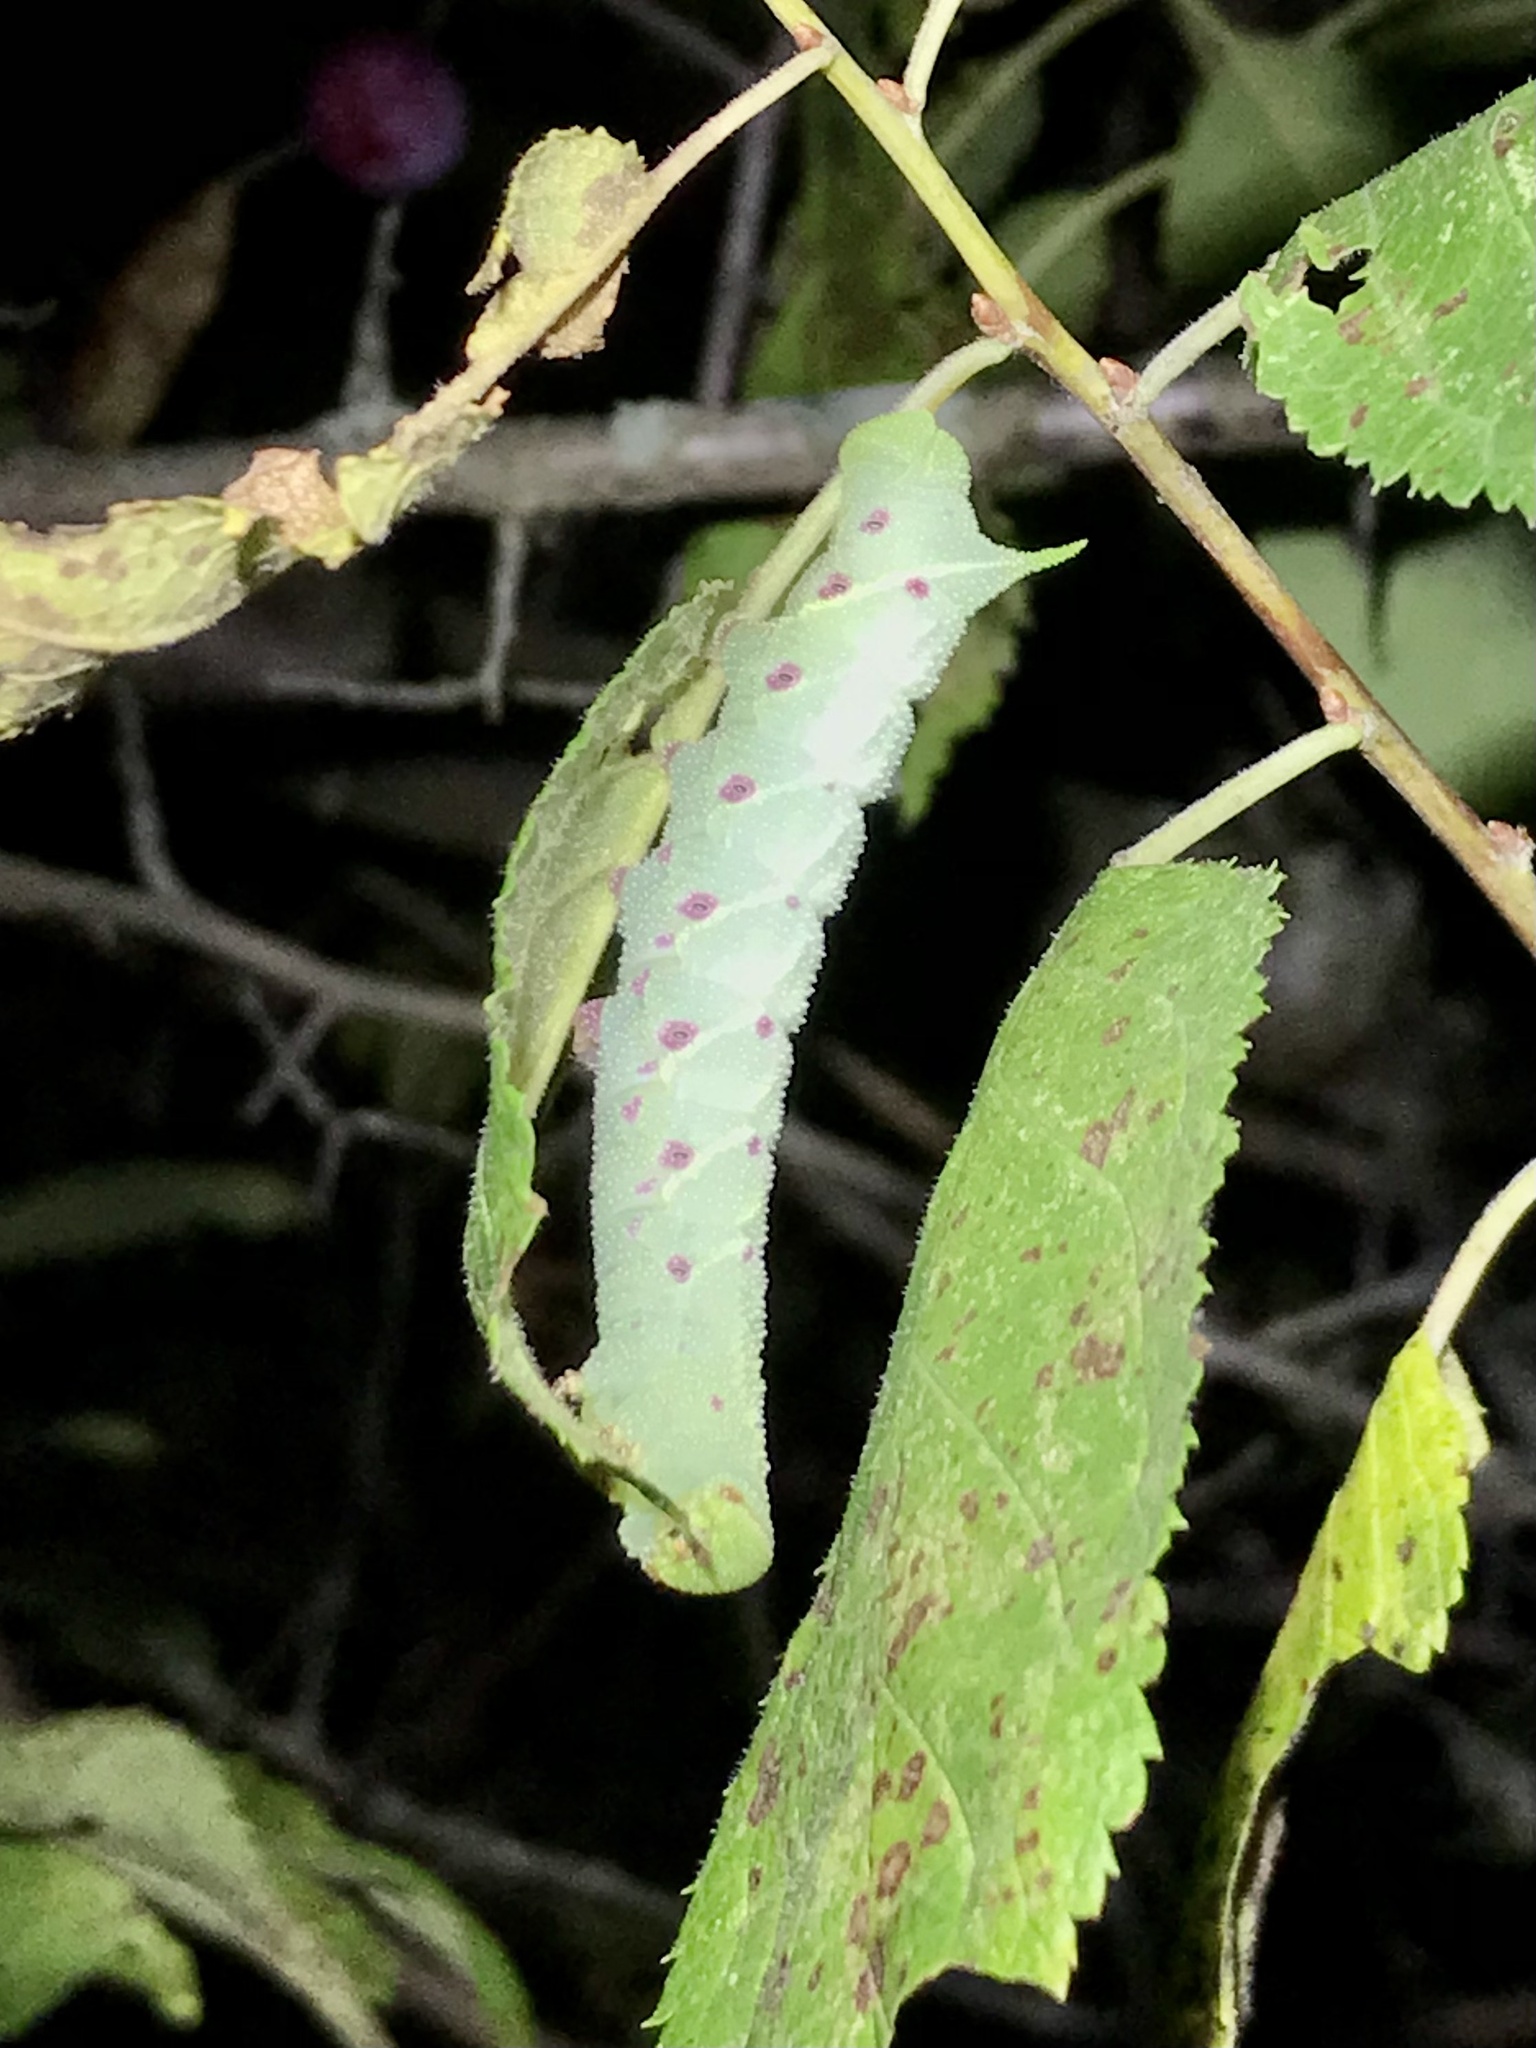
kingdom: Animalia
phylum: Arthropoda
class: Insecta
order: Lepidoptera
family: Sphingidae
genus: Paonias
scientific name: Paonias excaecata
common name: Blind-eyed sphinx
